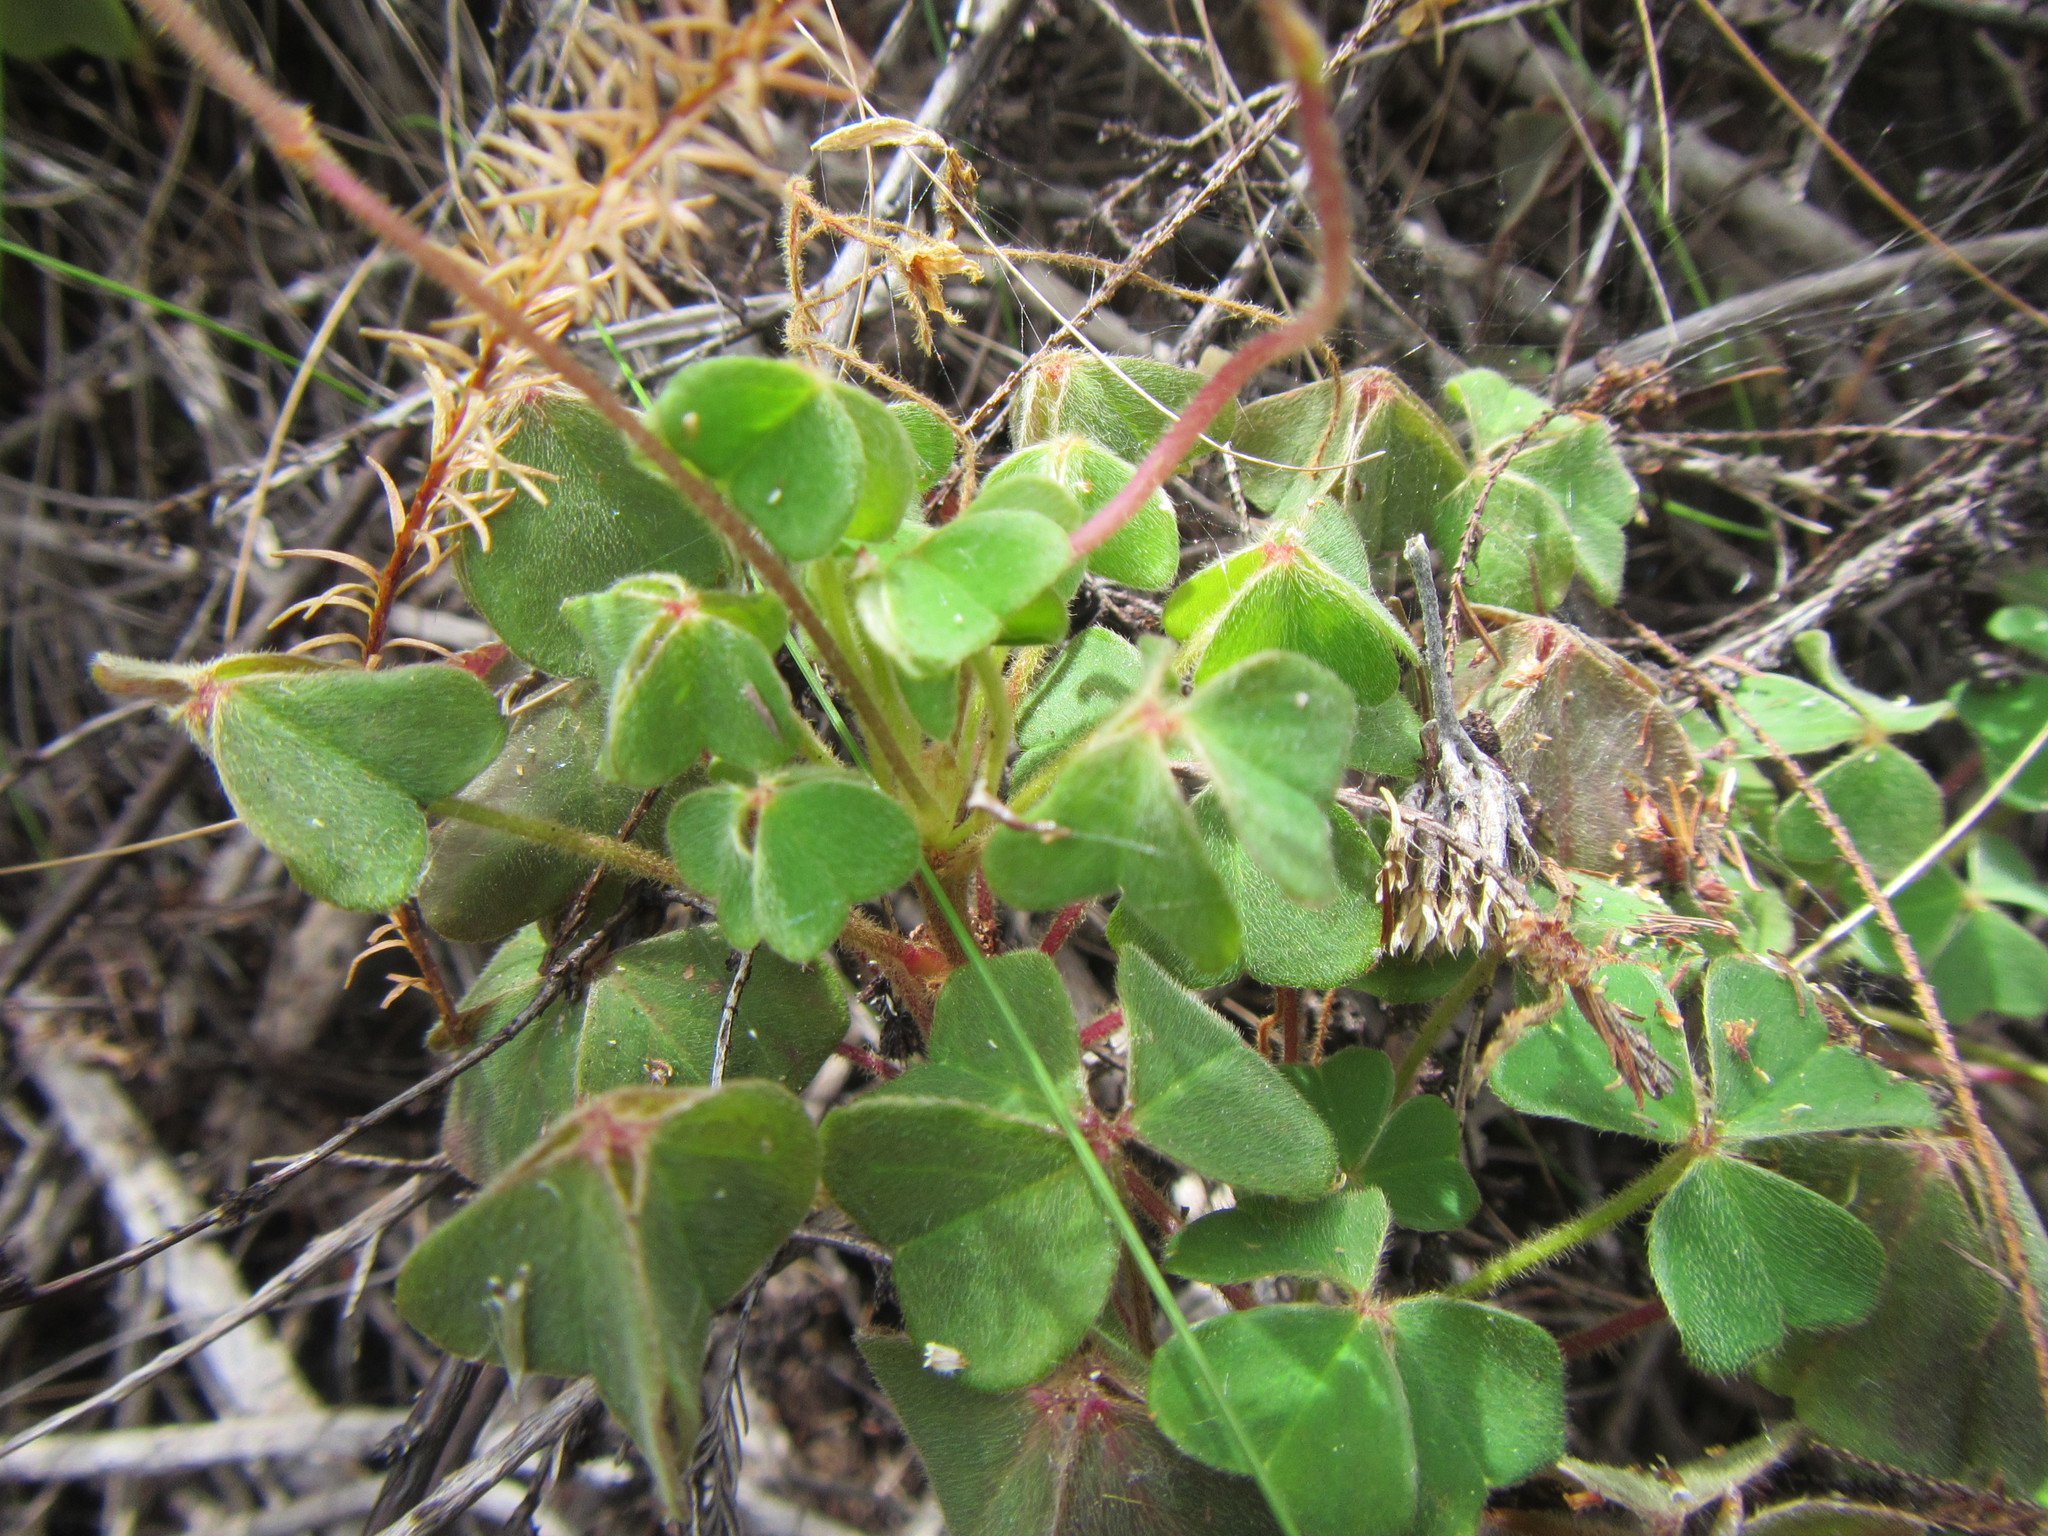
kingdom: Plantae
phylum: Tracheophyta
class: Magnoliopsida
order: Oxalidales
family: Oxalidaceae
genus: Oxalis
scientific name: Oxalis lanata
